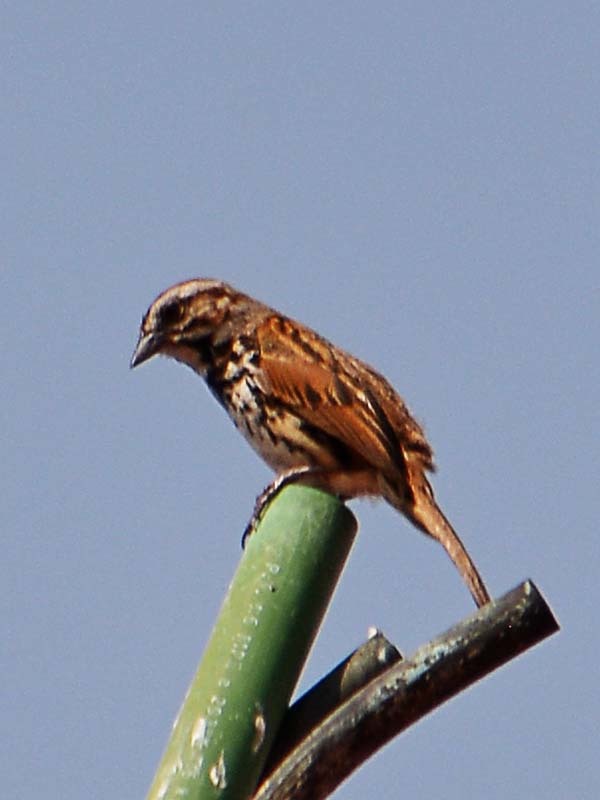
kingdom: Animalia
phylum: Chordata
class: Aves
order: Passeriformes
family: Passerellidae
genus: Melospiza
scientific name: Melospiza melodia
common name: Song sparrow
